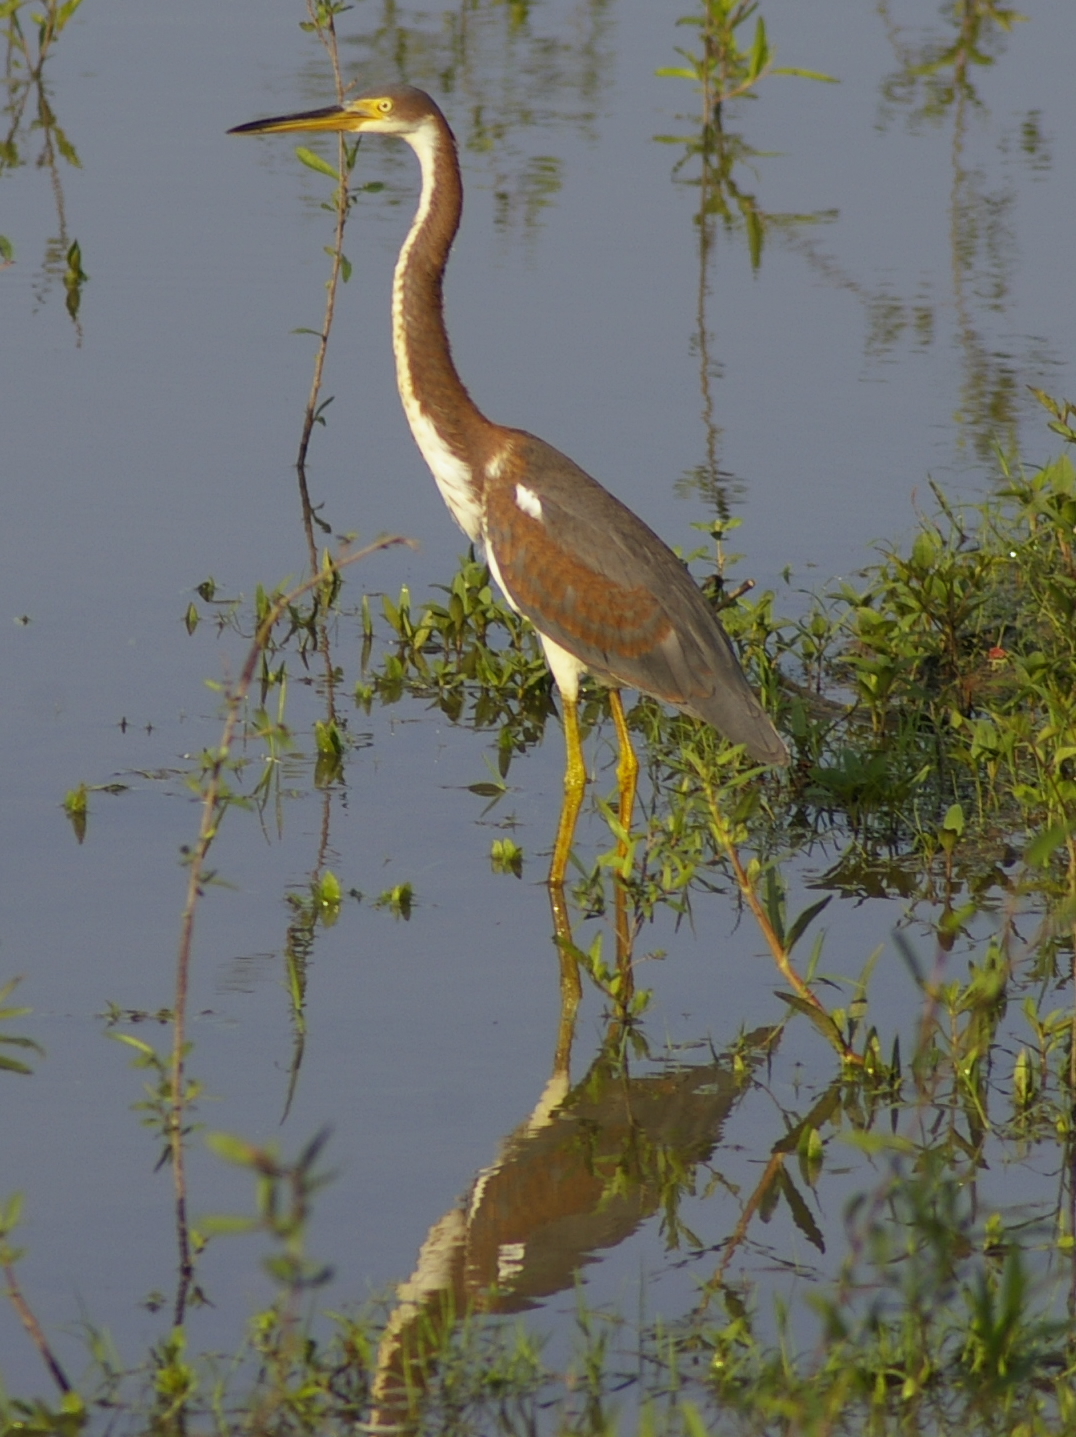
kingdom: Animalia
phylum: Chordata
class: Aves
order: Pelecaniformes
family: Ardeidae
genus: Egretta
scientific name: Egretta tricolor
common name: Tricolored heron
